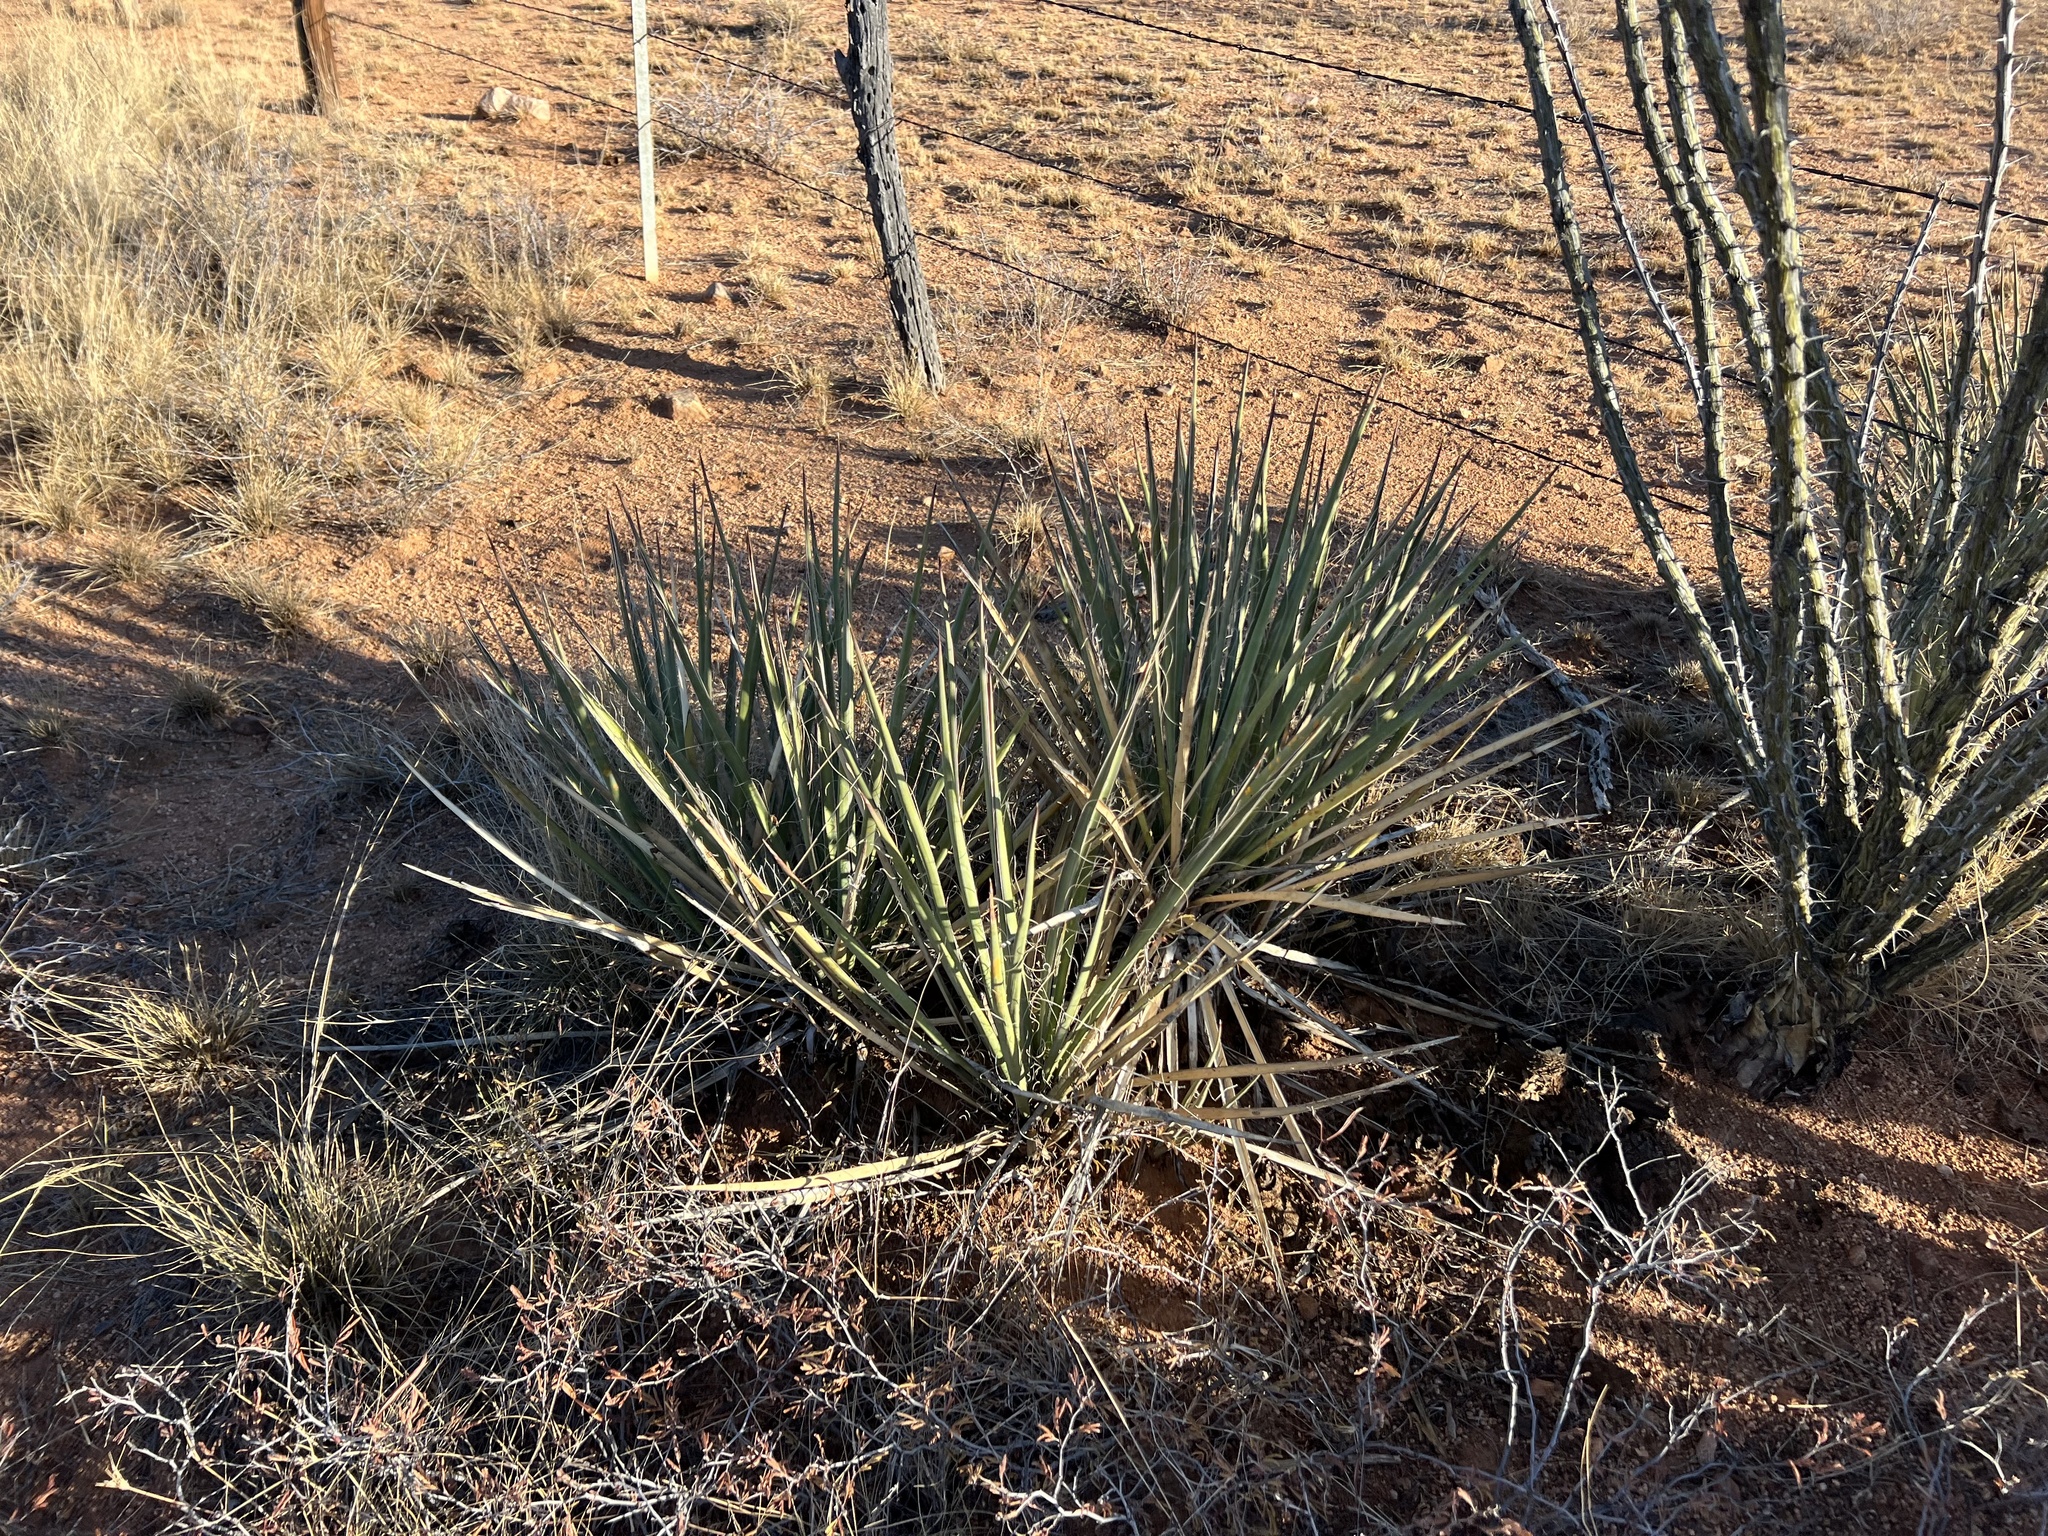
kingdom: Plantae
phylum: Tracheophyta
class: Liliopsida
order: Asparagales
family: Asparagaceae
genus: Yucca
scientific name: Yucca baccata
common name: Banana yucca
